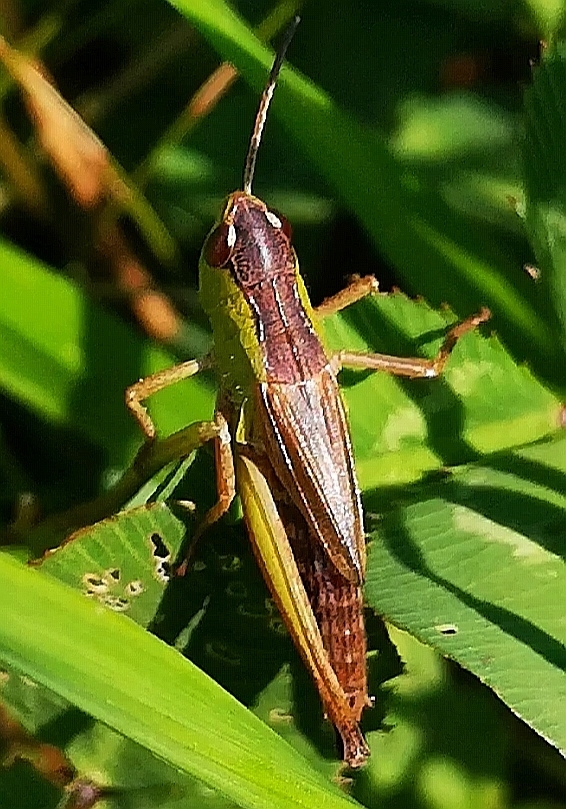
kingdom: Animalia
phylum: Arthropoda
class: Insecta
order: Orthoptera
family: Acrididae
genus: Pseudochorthippus
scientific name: Pseudochorthippus parallelus
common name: Meadow grasshopper
